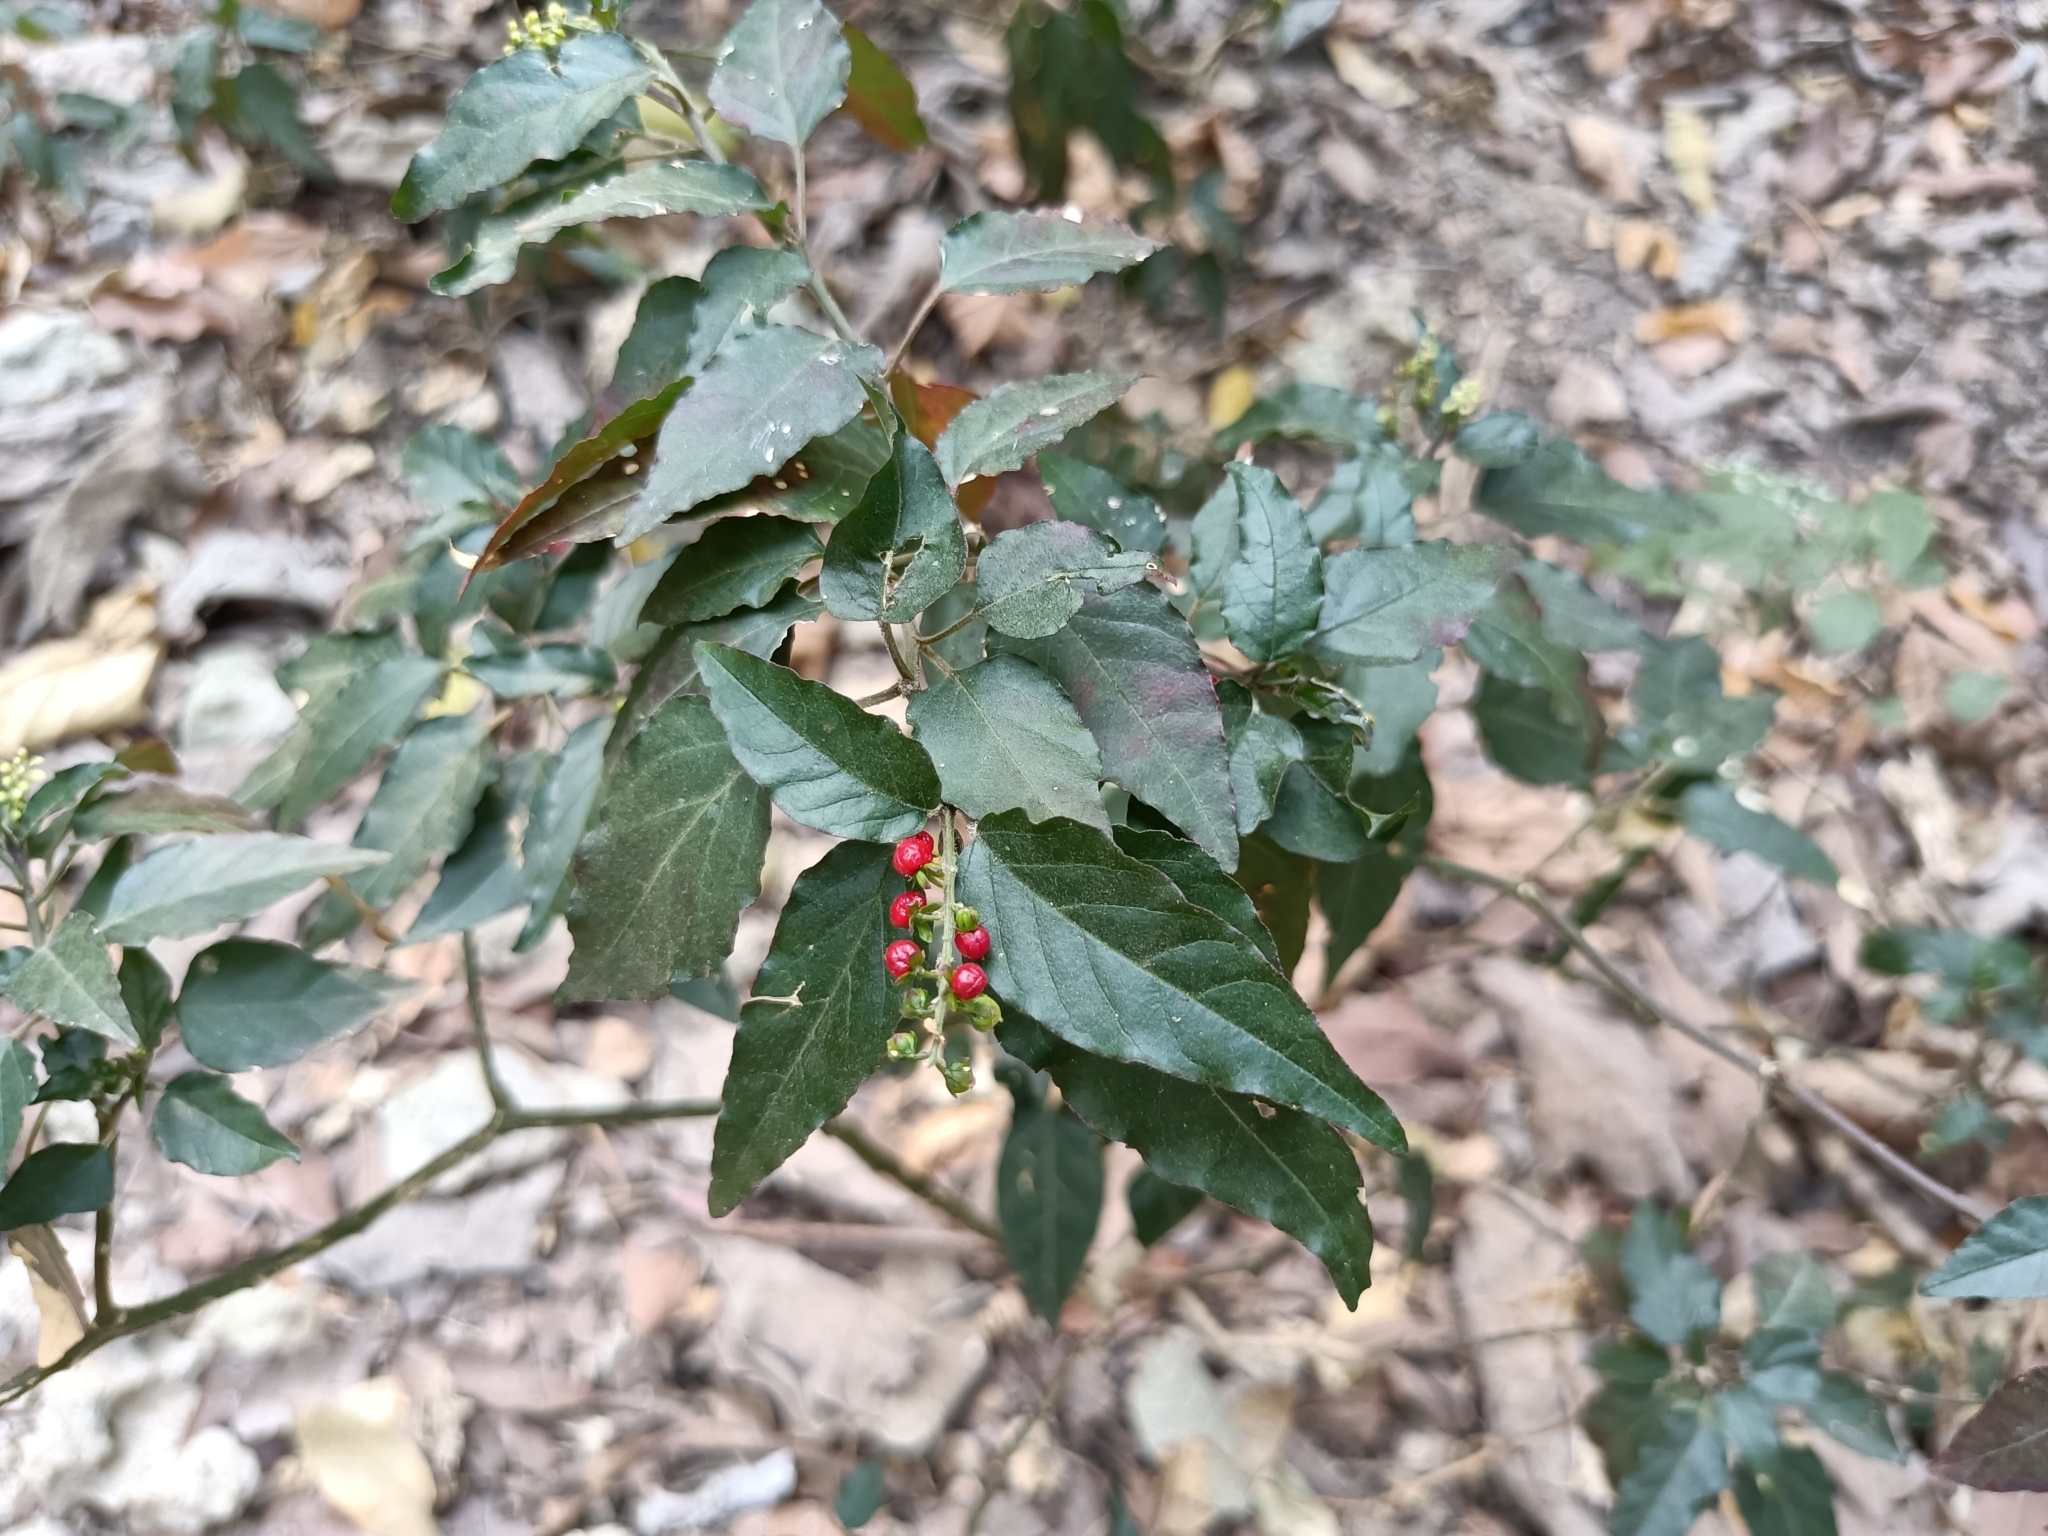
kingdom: Plantae
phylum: Tracheophyta
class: Magnoliopsida
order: Caryophyllales
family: Phytolaccaceae
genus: Rivina
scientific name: Rivina humilis
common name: Rougeplant
